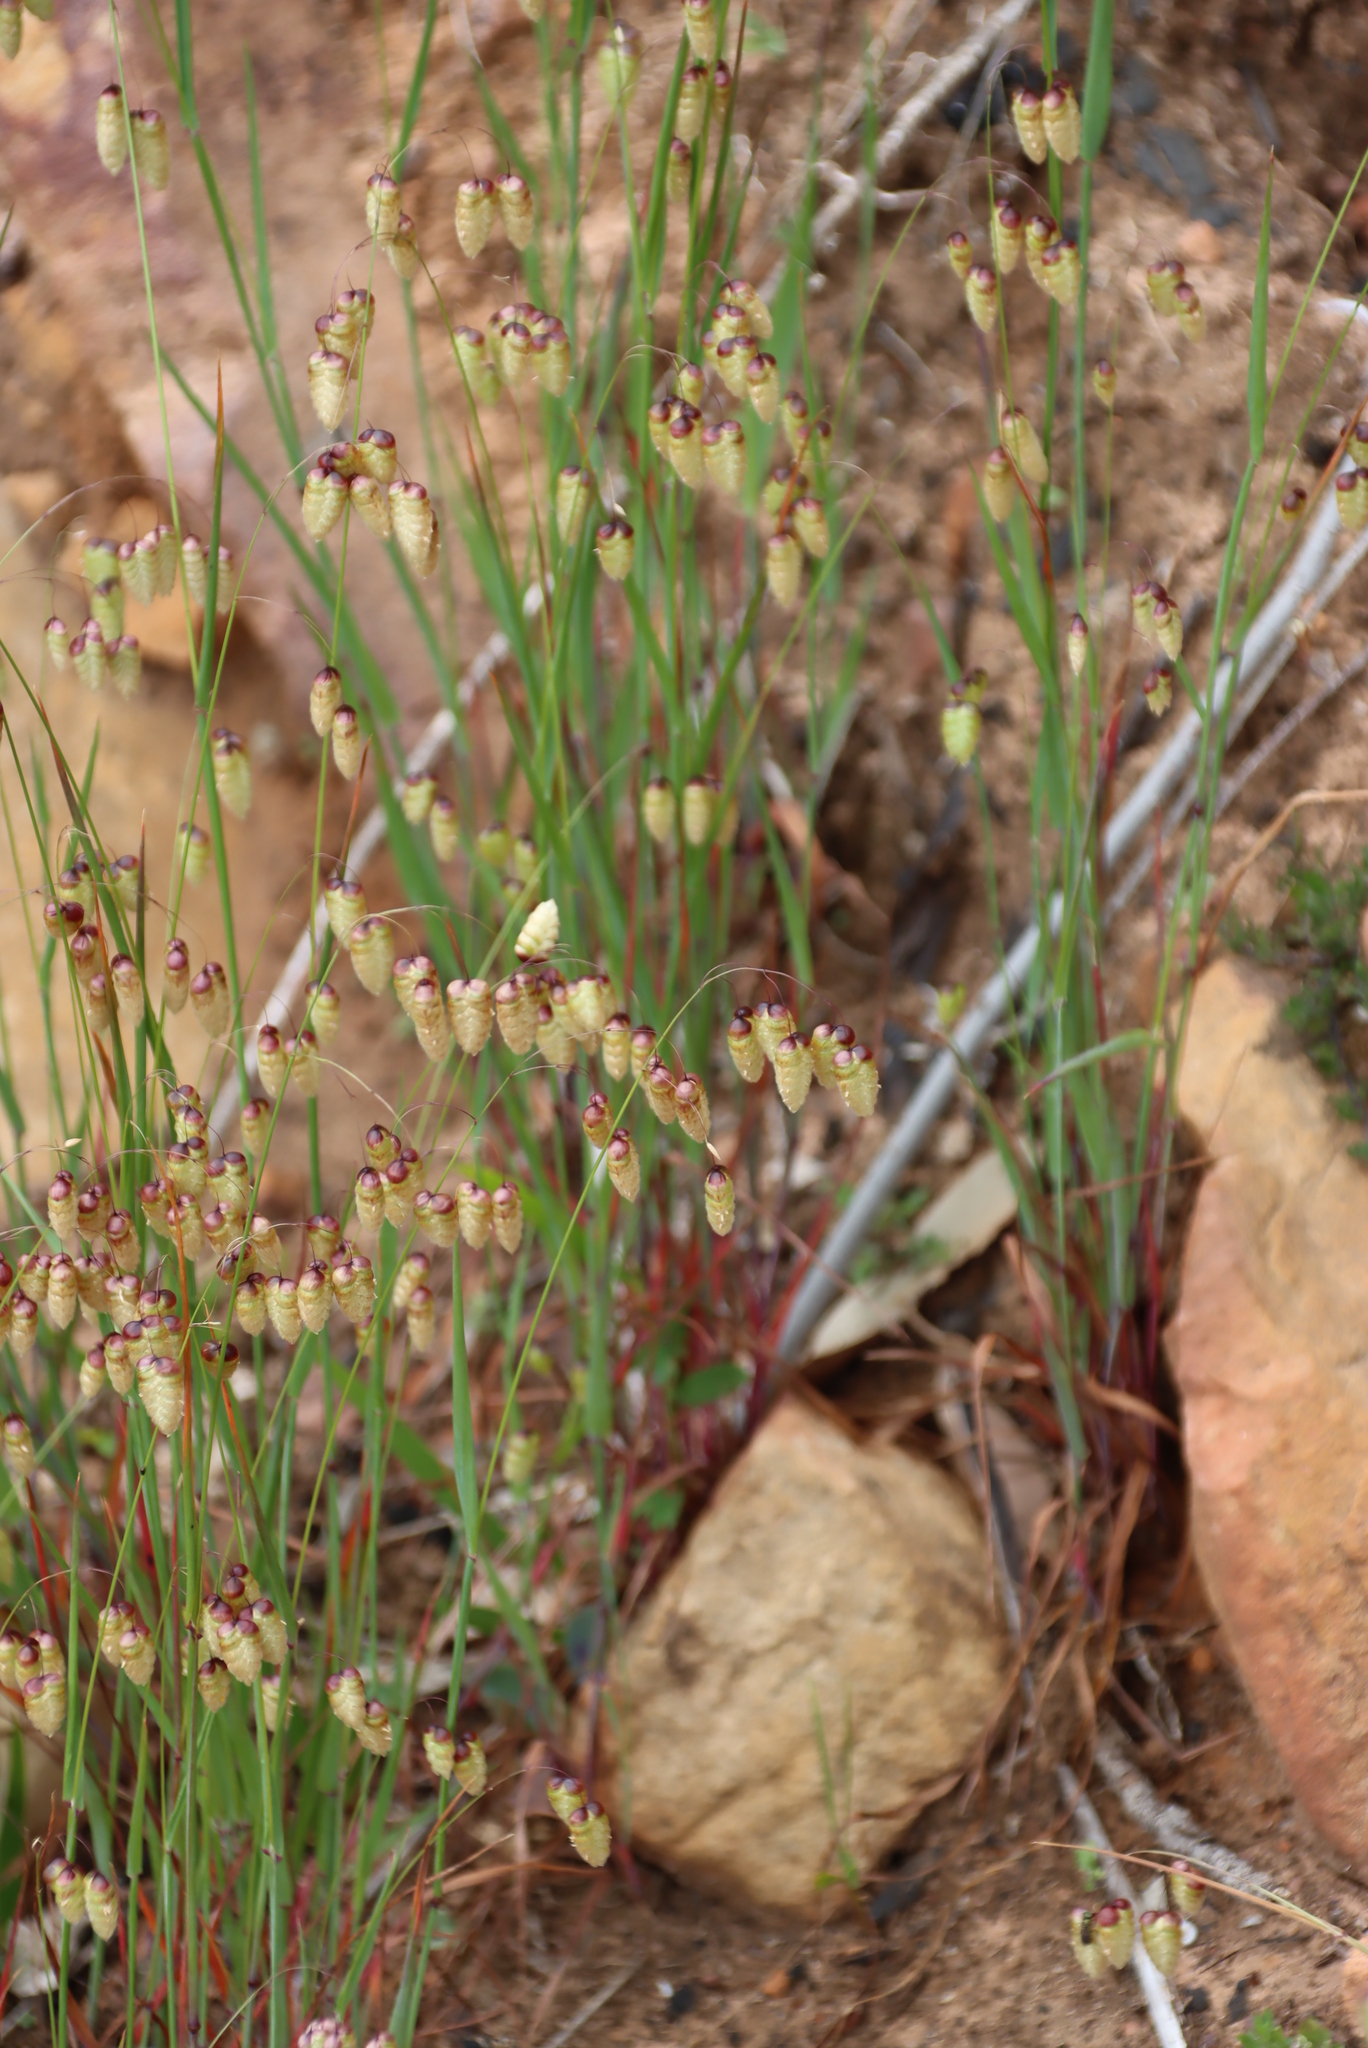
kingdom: Plantae
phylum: Tracheophyta
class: Liliopsida
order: Poales
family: Poaceae
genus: Briza
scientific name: Briza maxima
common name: Big quakinggrass
